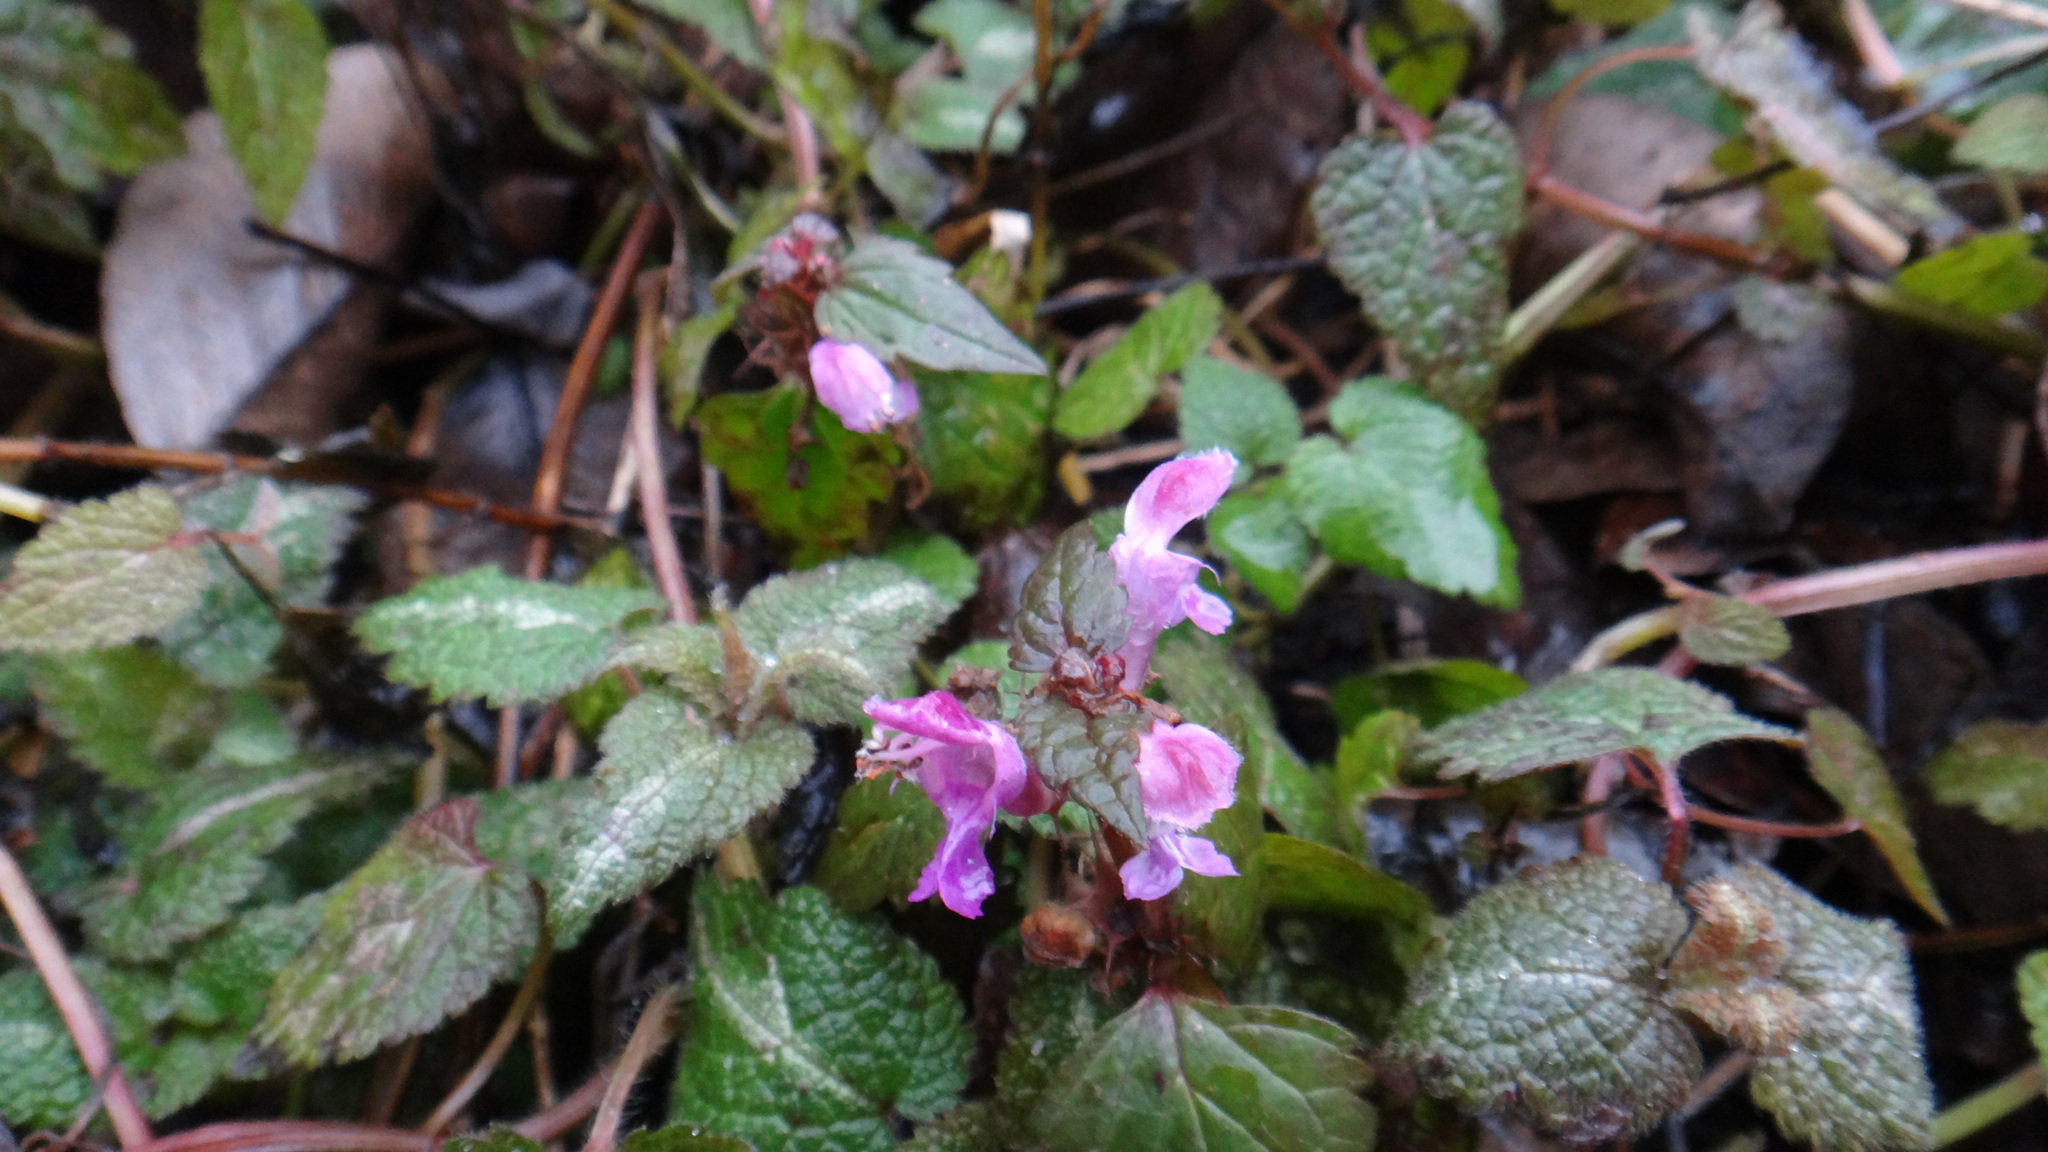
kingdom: Plantae
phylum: Tracheophyta
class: Magnoliopsida
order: Lamiales
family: Lamiaceae
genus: Lamium
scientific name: Lamium maculatum
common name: Spotted dead-nettle
